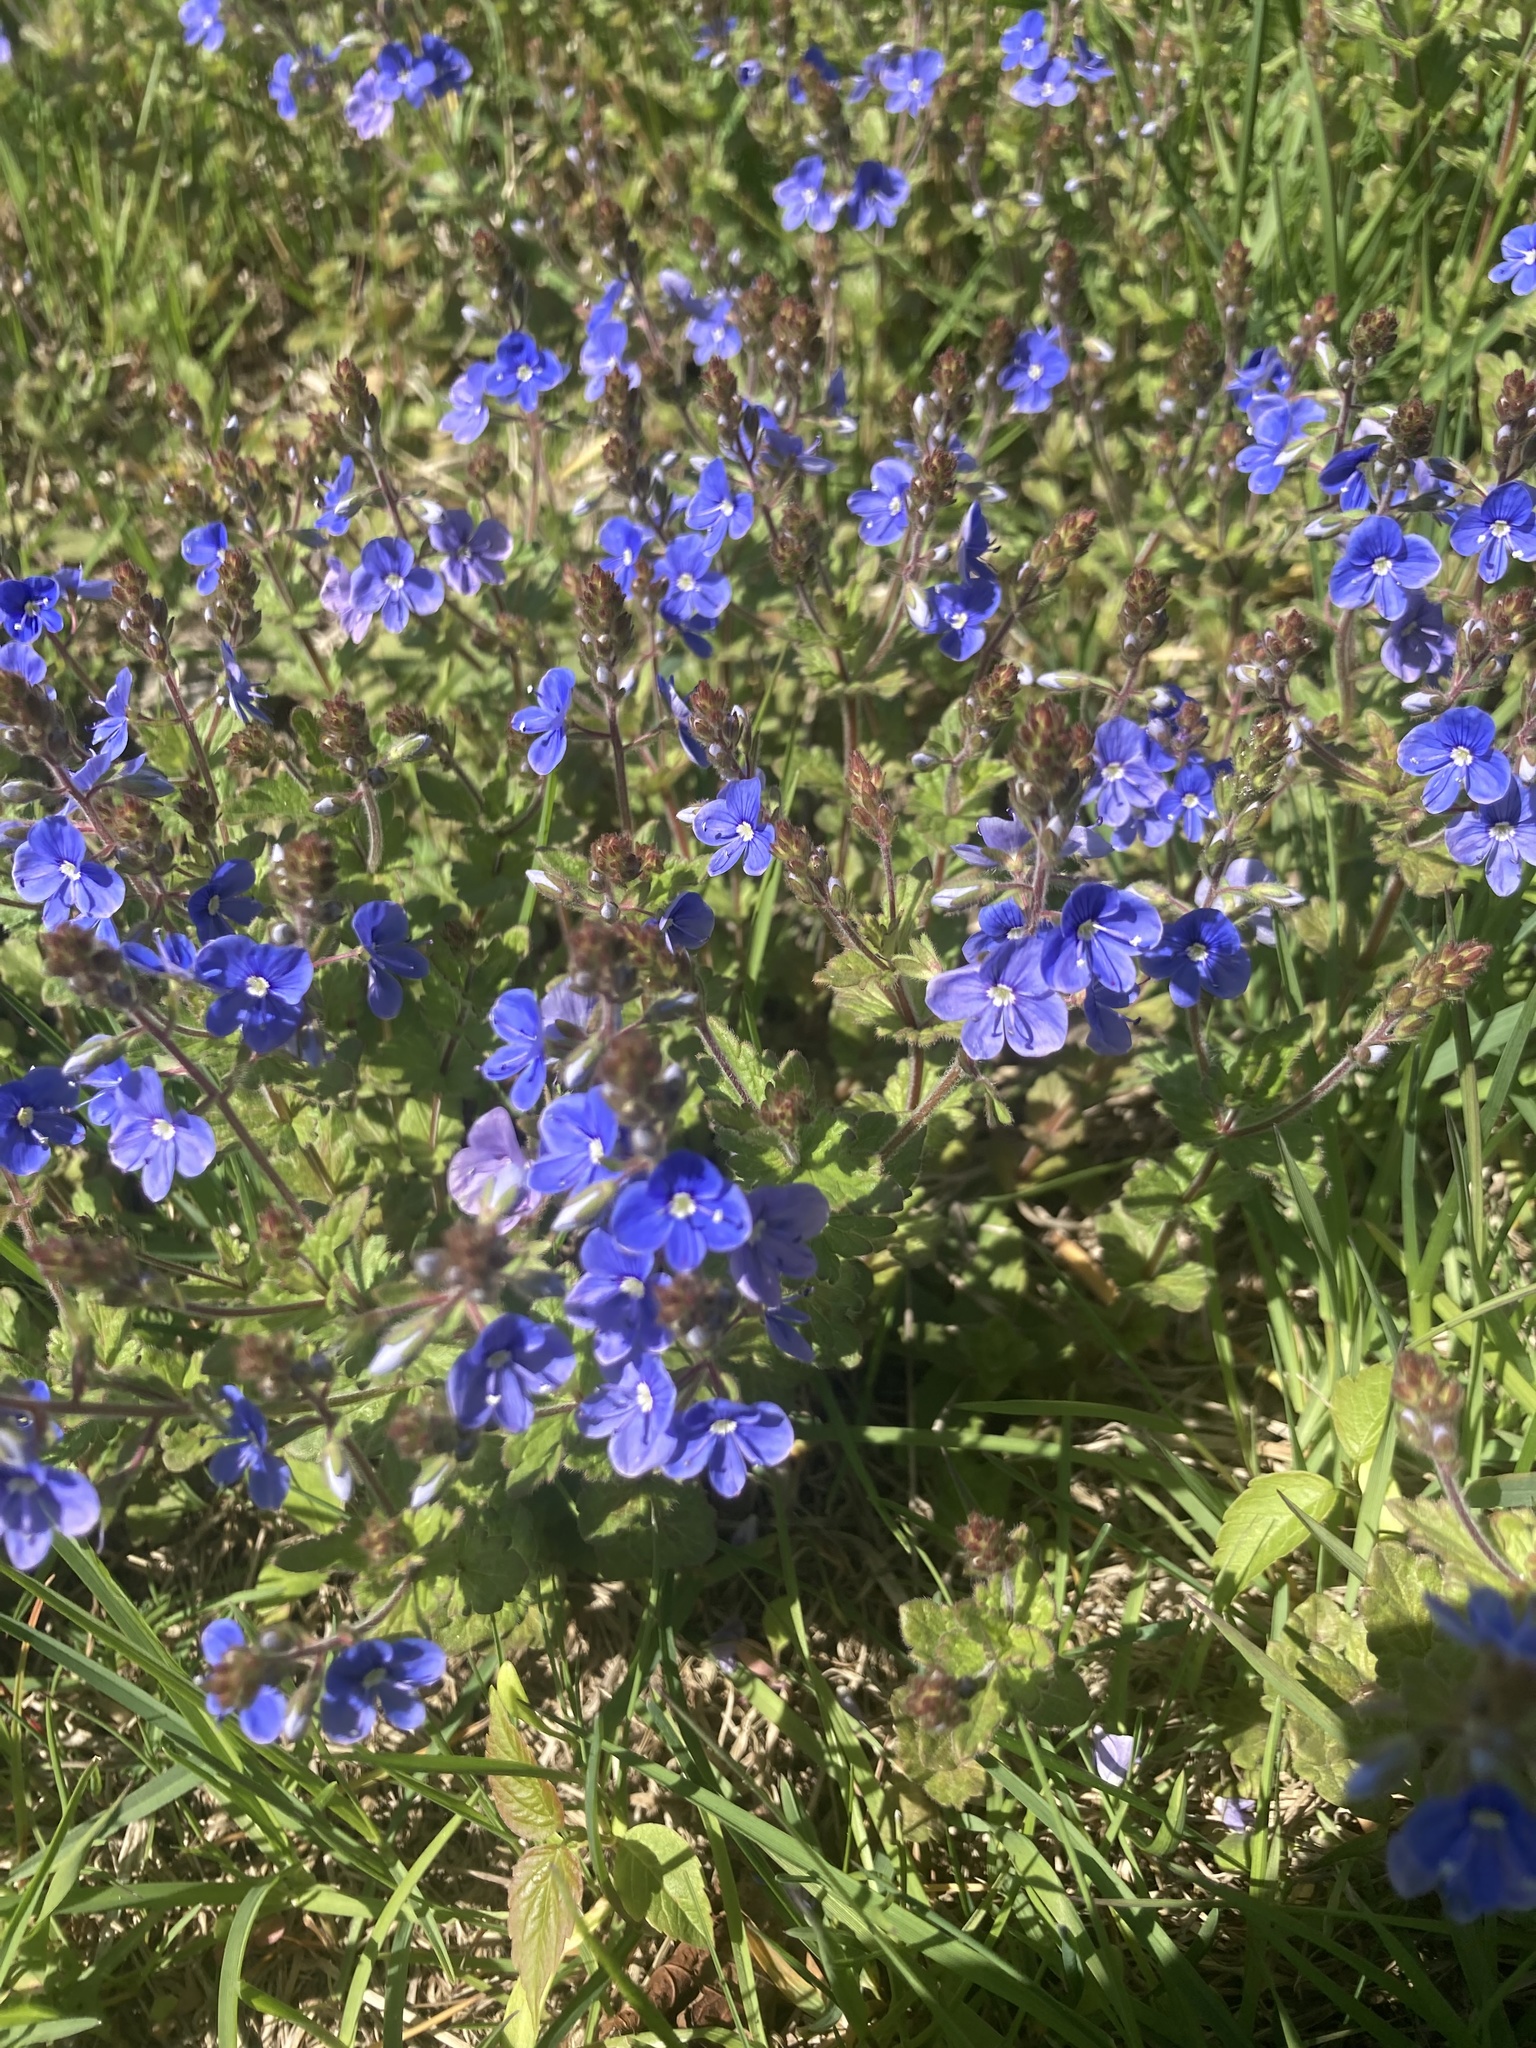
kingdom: Plantae
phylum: Tracheophyta
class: Magnoliopsida
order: Lamiales
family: Plantaginaceae
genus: Veronica
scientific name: Veronica chamaedrys
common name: Germander speedwell
